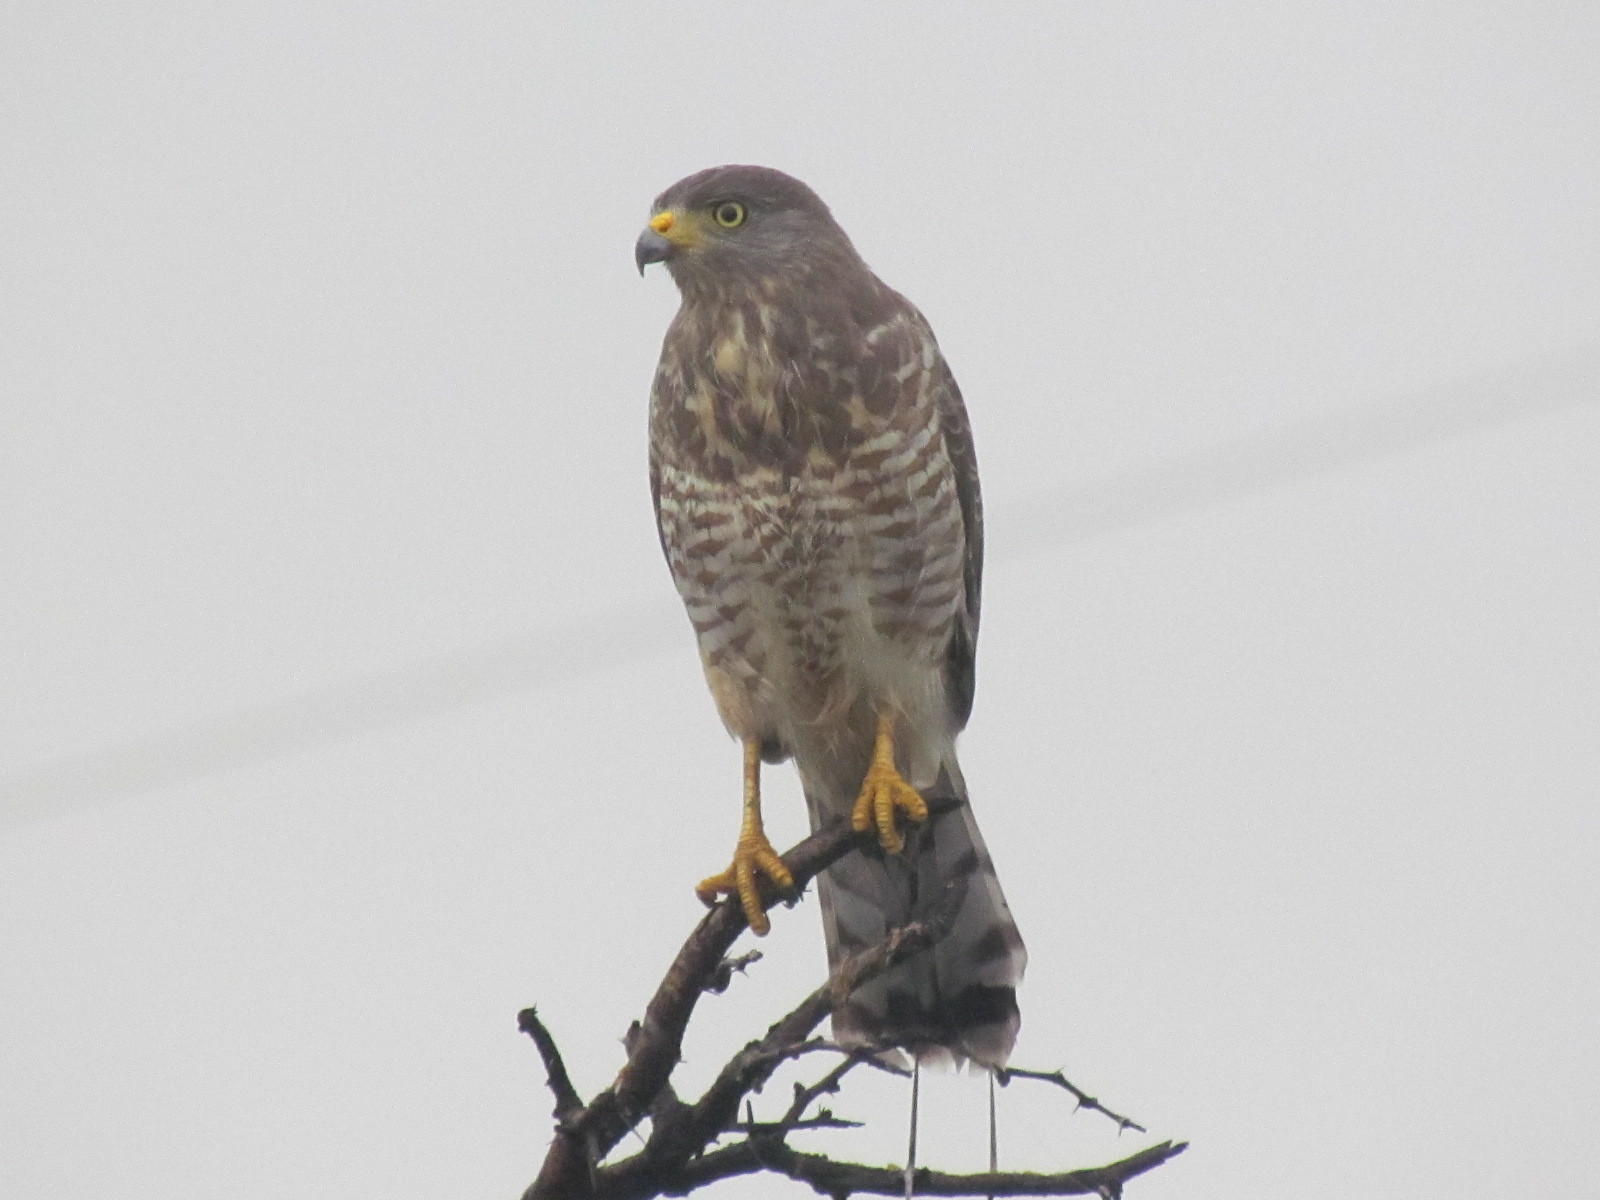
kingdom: Animalia
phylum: Chordata
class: Aves
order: Accipitriformes
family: Accipitridae
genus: Rupornis
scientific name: Rupornis magnirostris
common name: Roadside hawk
